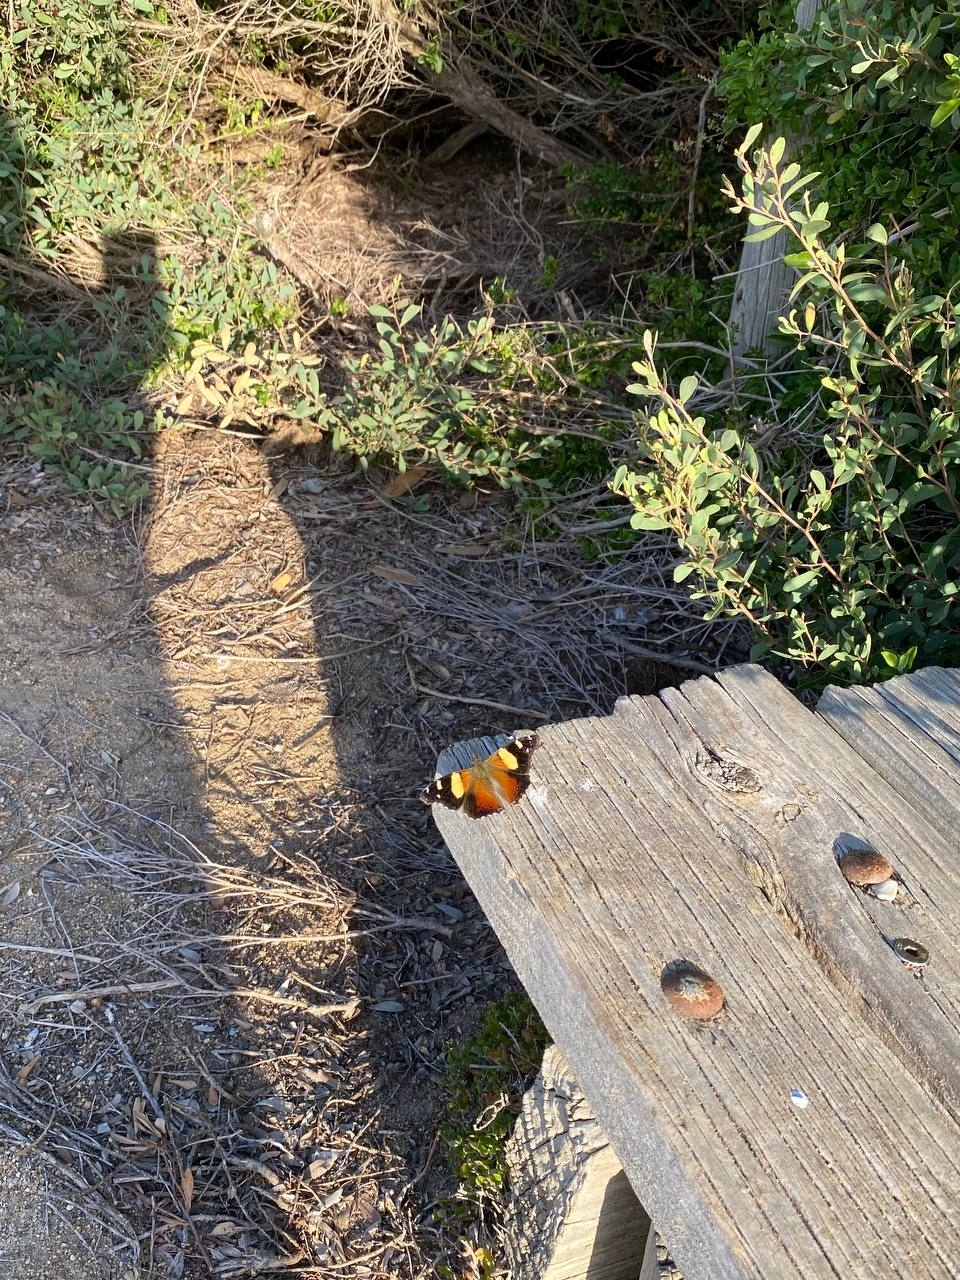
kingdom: Animalia
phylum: Arthropoda
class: Insecta
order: Lepidoptera
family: Nymphalidae
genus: Vanessa
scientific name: Vanessa itea
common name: Yellow admiral
